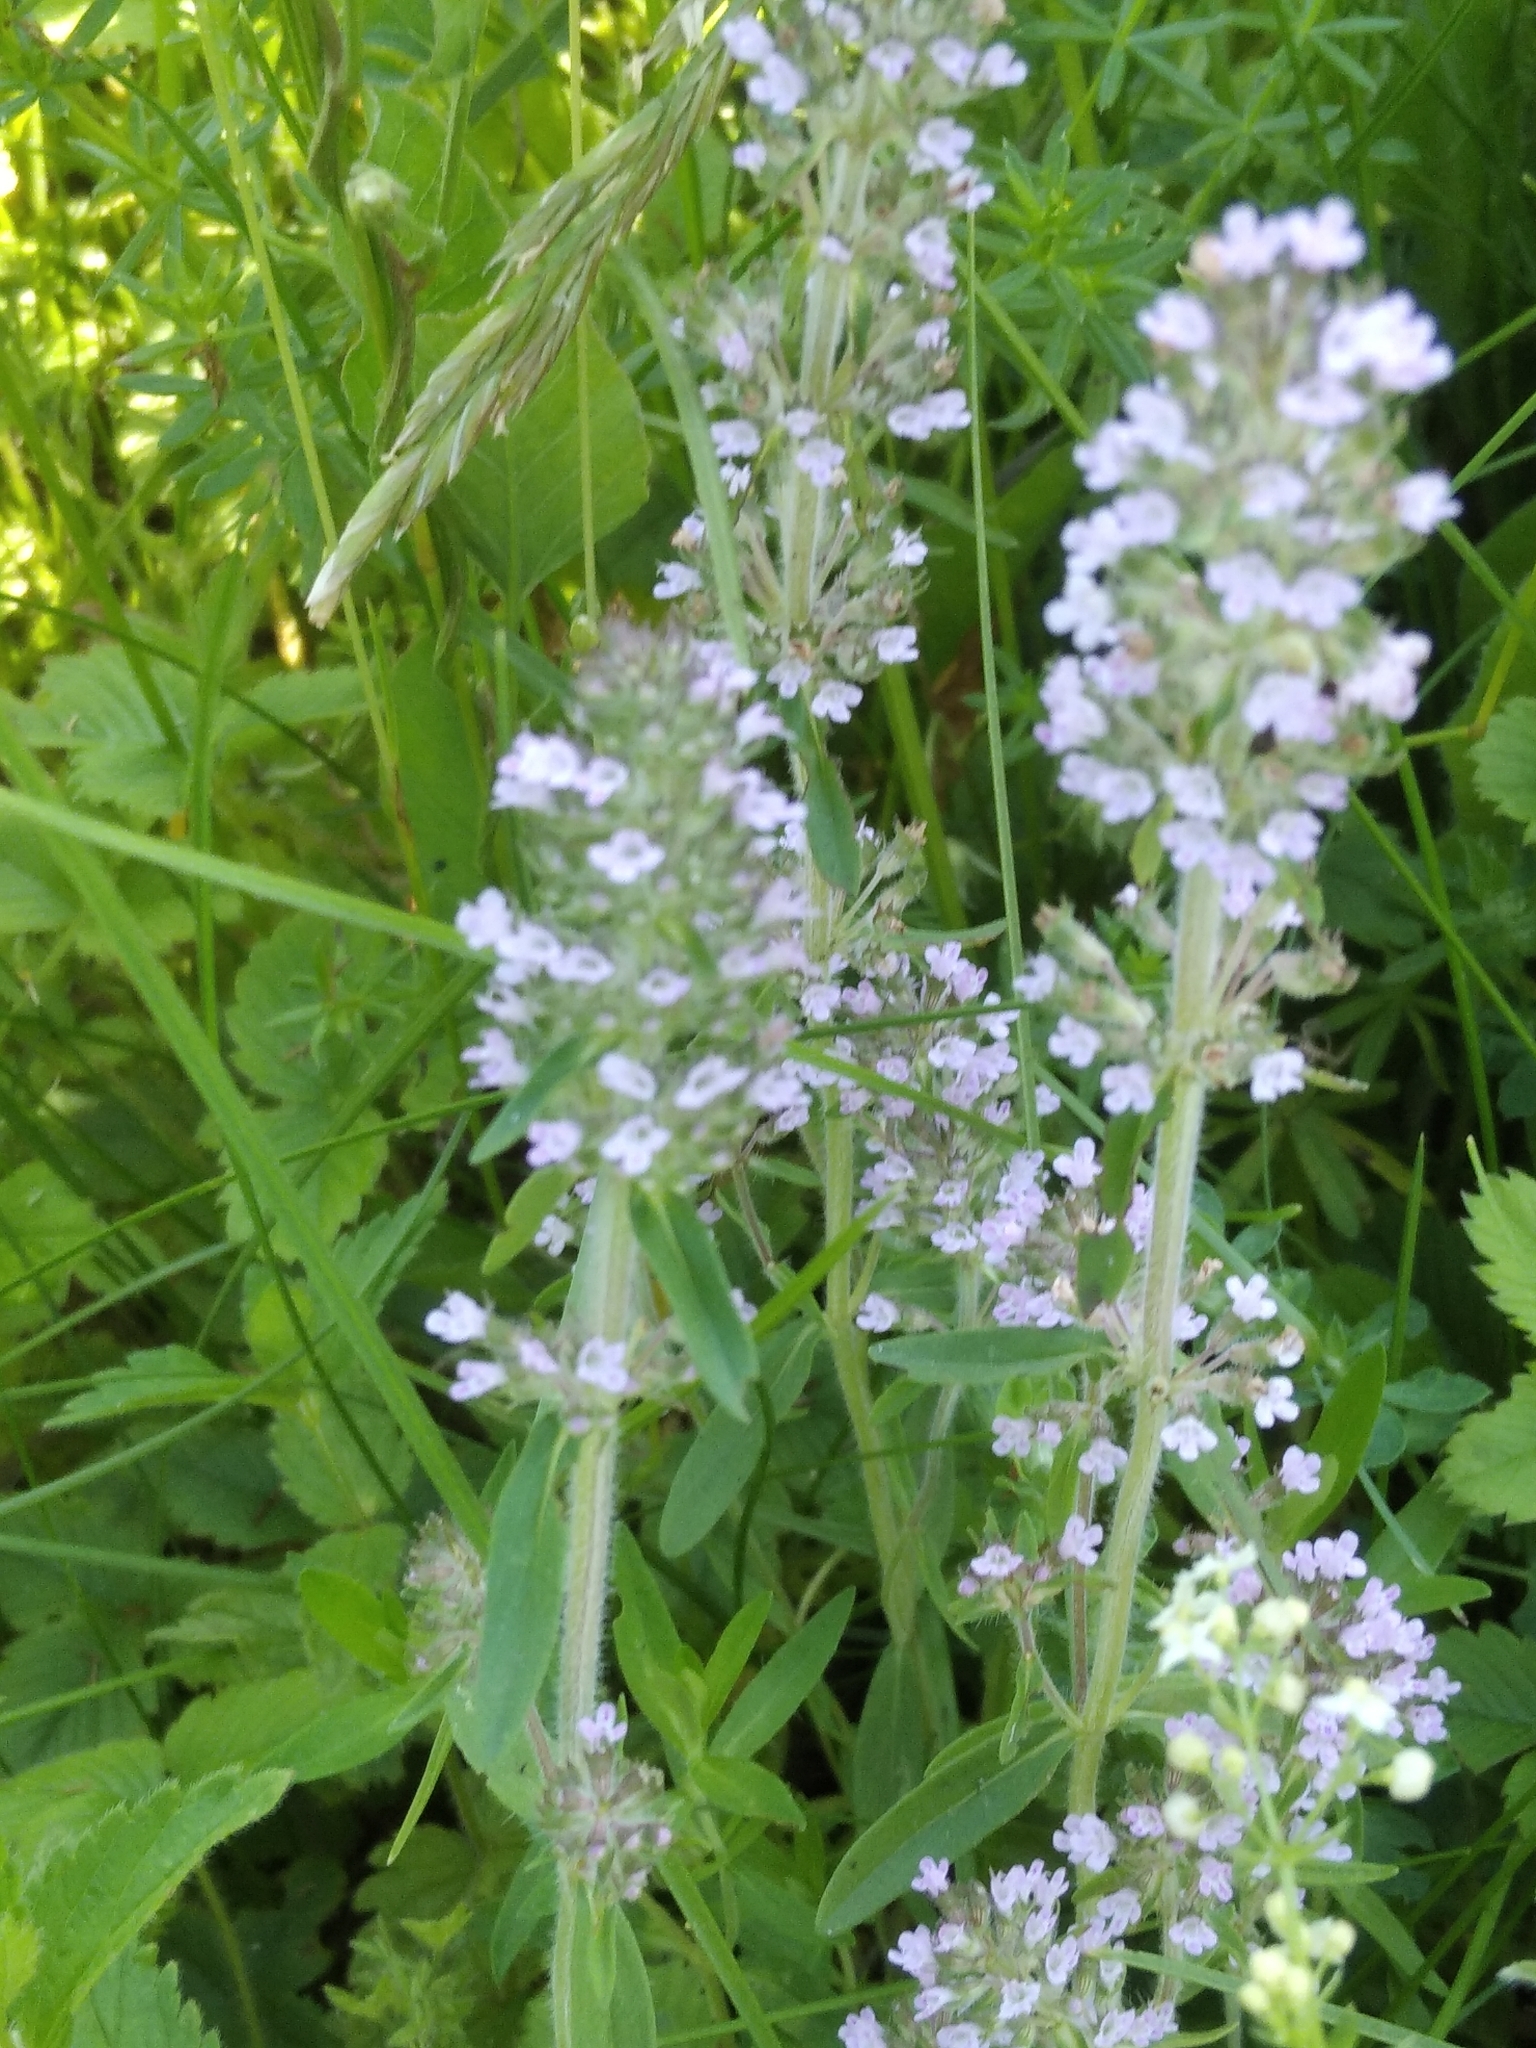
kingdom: Plantae
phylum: Tracheophyta
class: Magnoliopsida
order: Lamiales
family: Lamiaceae
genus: Thymus
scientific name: Thymus pannonicus
